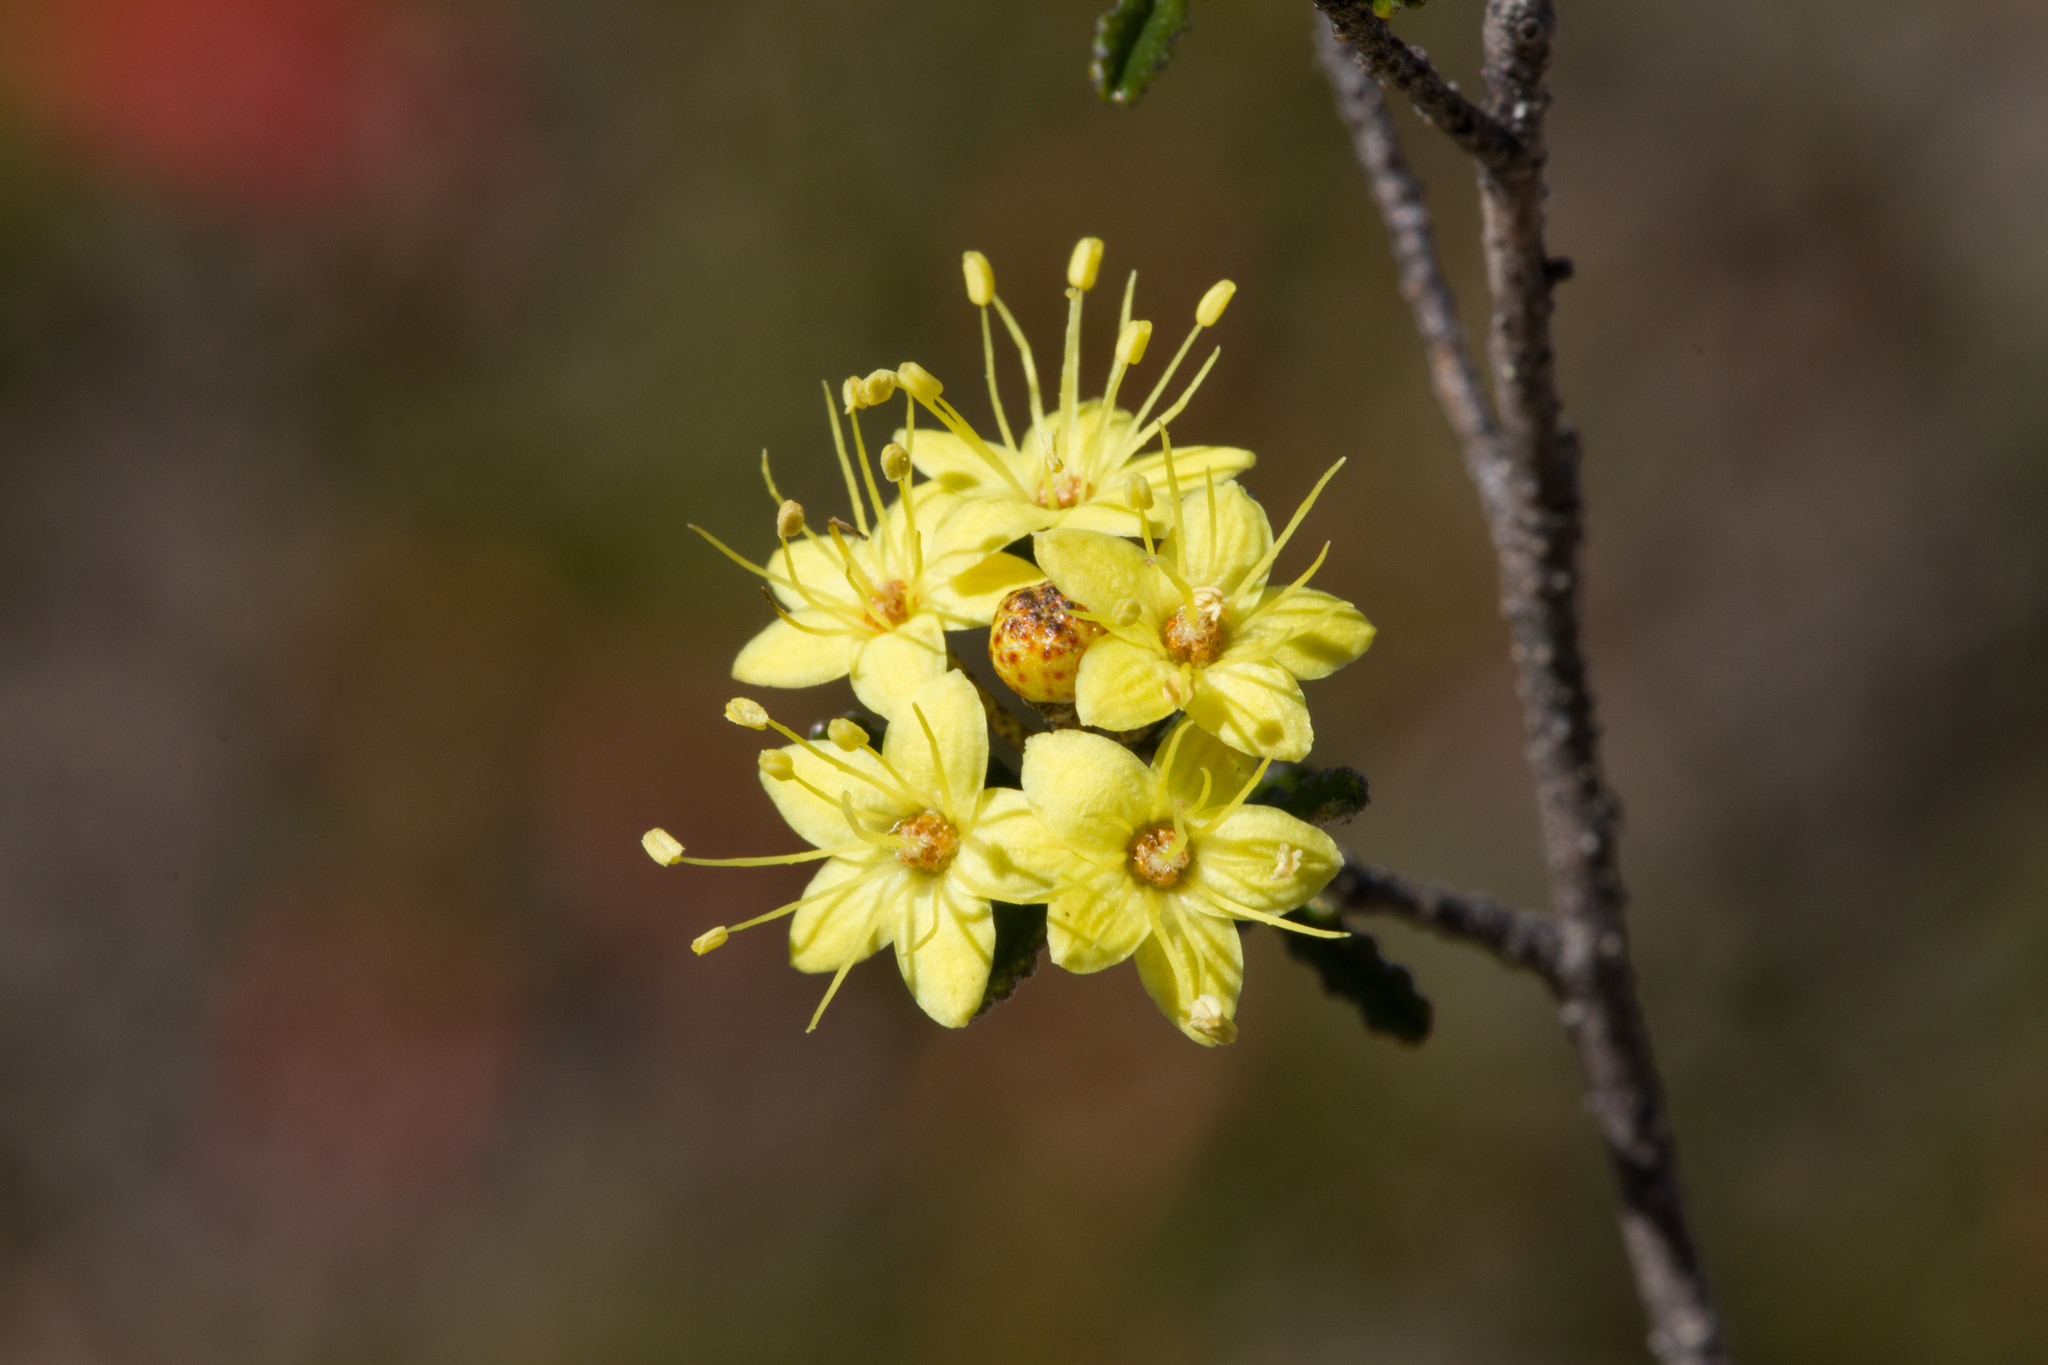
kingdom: Plantae
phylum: Tracheophyta
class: Magnoliopsida
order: Sapindales
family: Rutaceae
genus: Phebalium
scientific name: Phebalium bullatum
